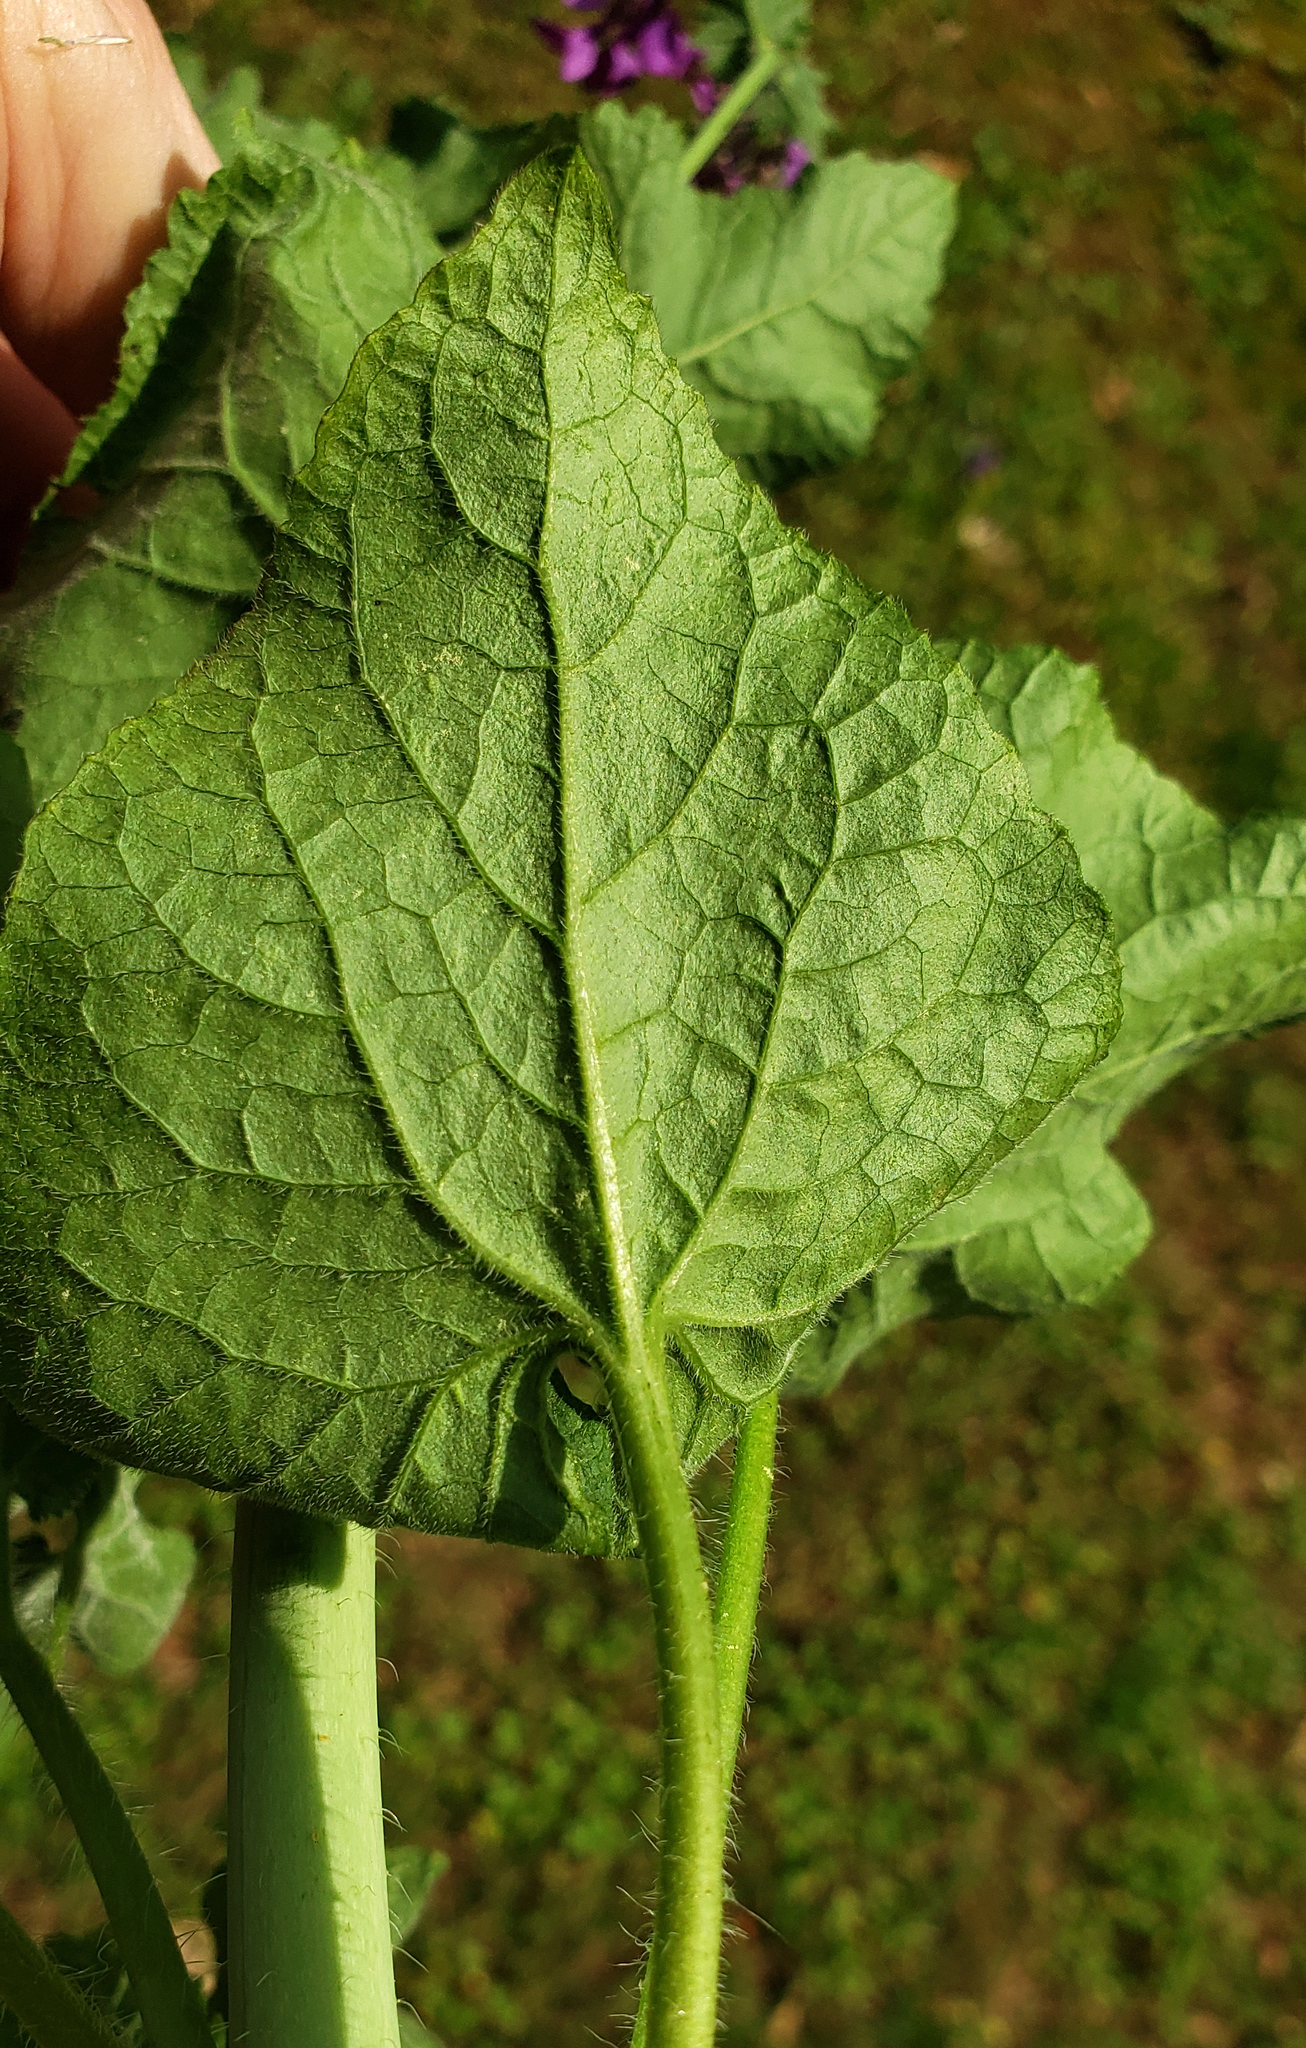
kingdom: Plantae
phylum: Tracheophyta
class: Magnoliopsida
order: Brassicales
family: Brassicaceae
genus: Lunaria
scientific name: Lunaria annua
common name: Honesty
